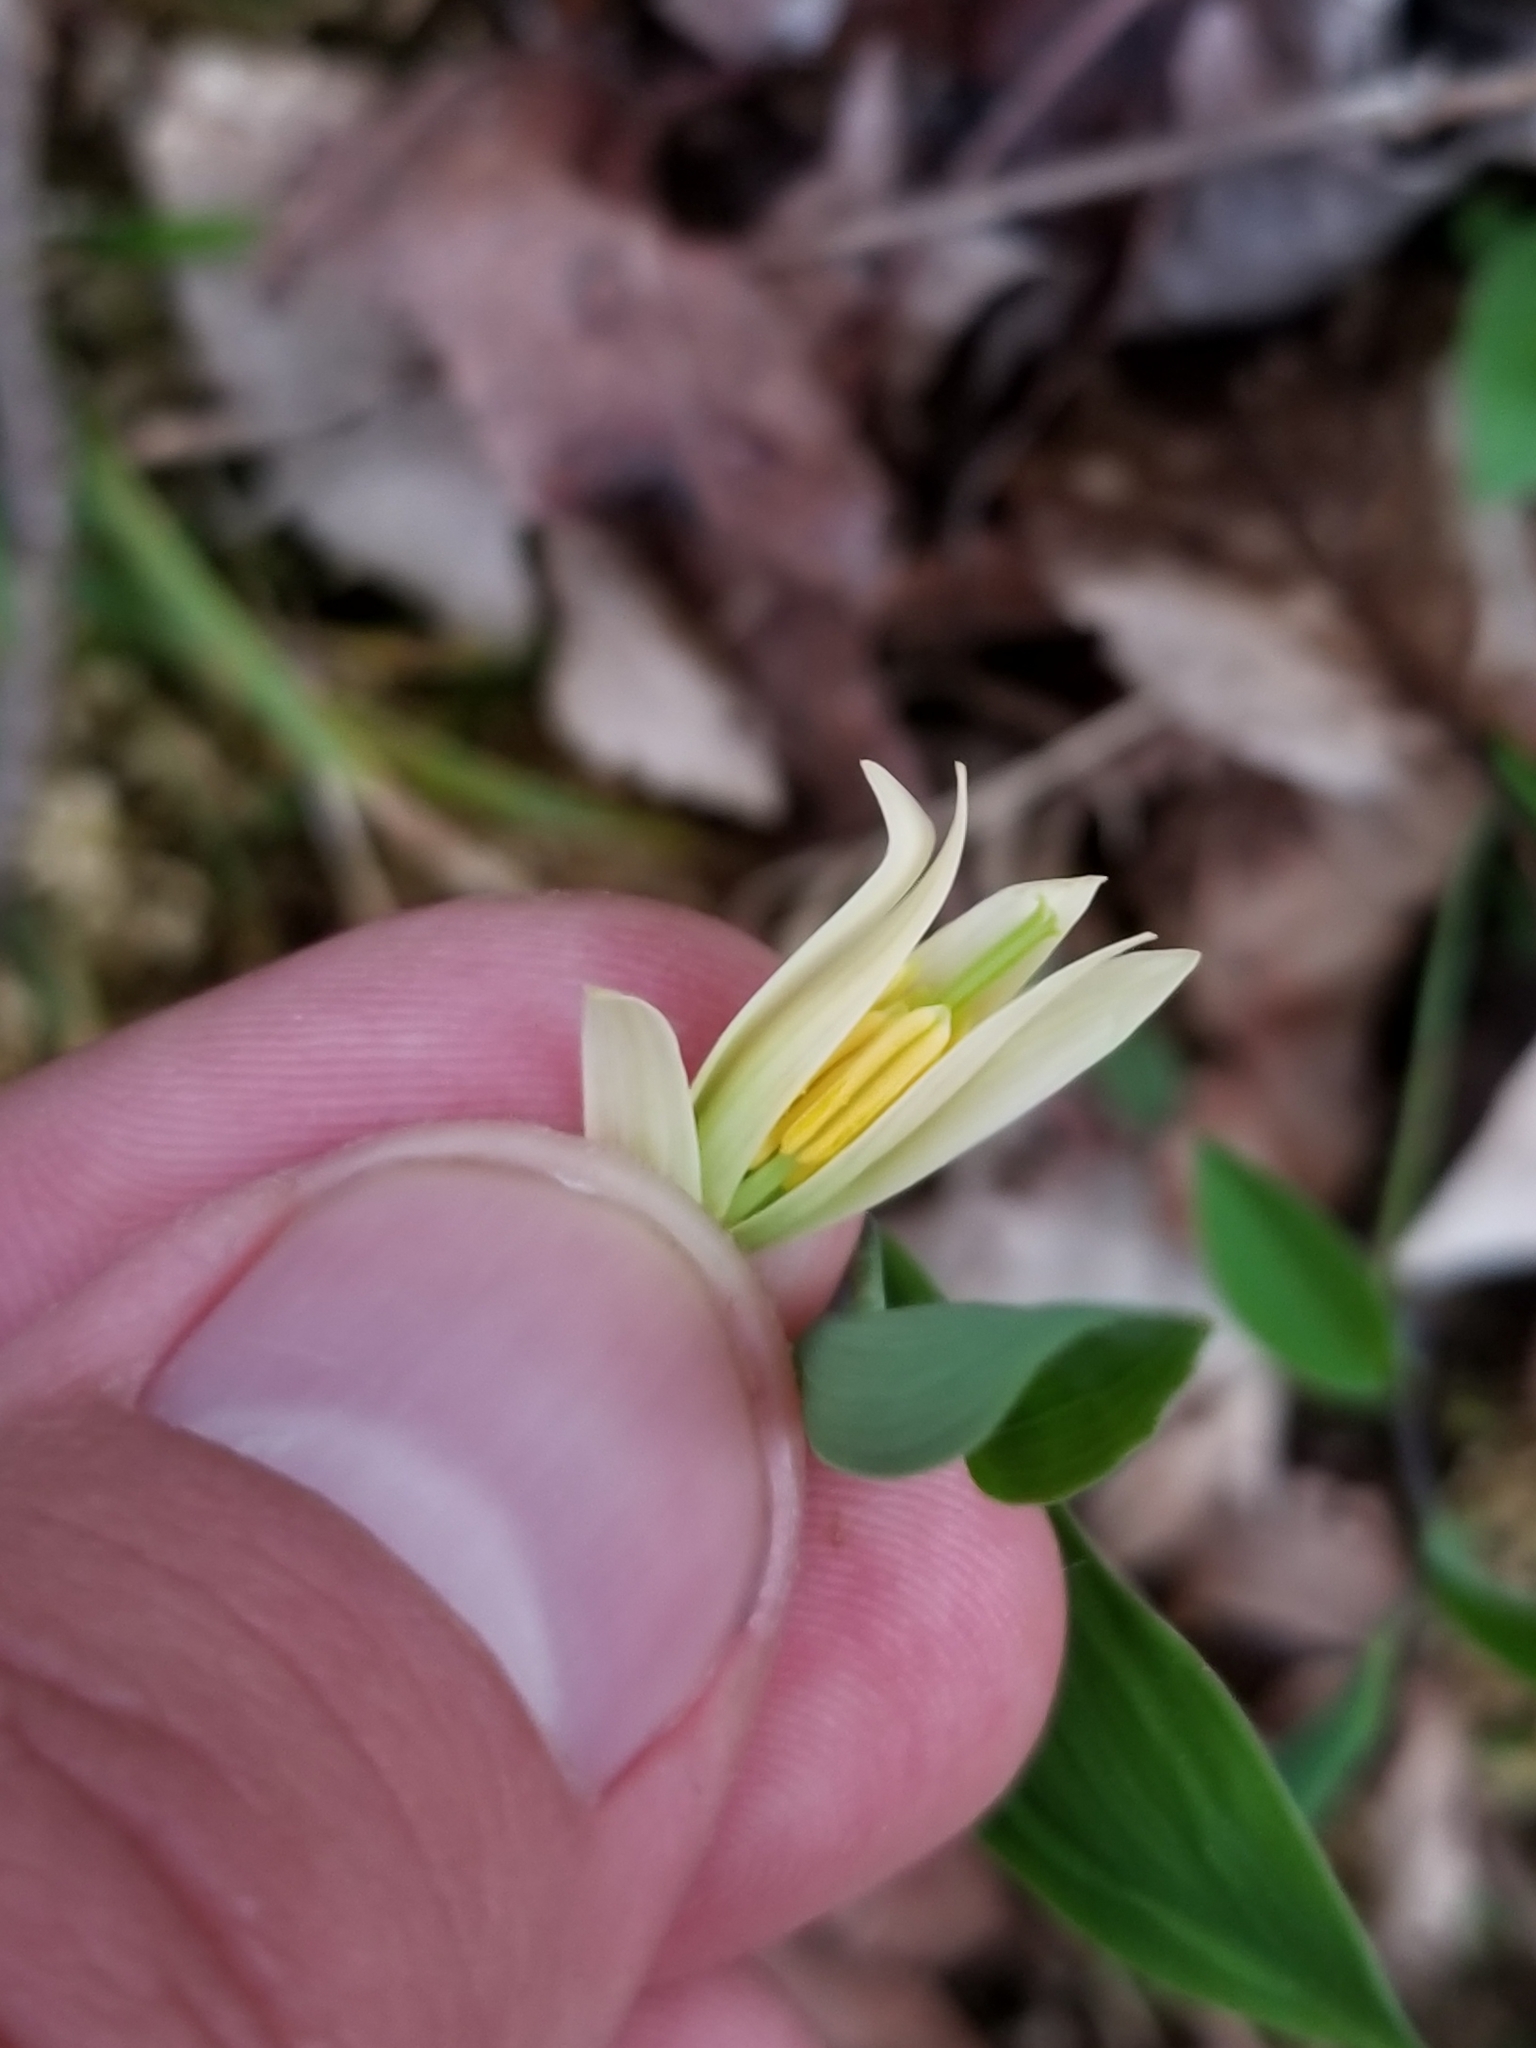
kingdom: Plantae
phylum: Tracheophyta
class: Liliopsida
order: Liliales
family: Colchicaceae
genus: Uvularia
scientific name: Uvularia sessilifolia
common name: Straw-lily
